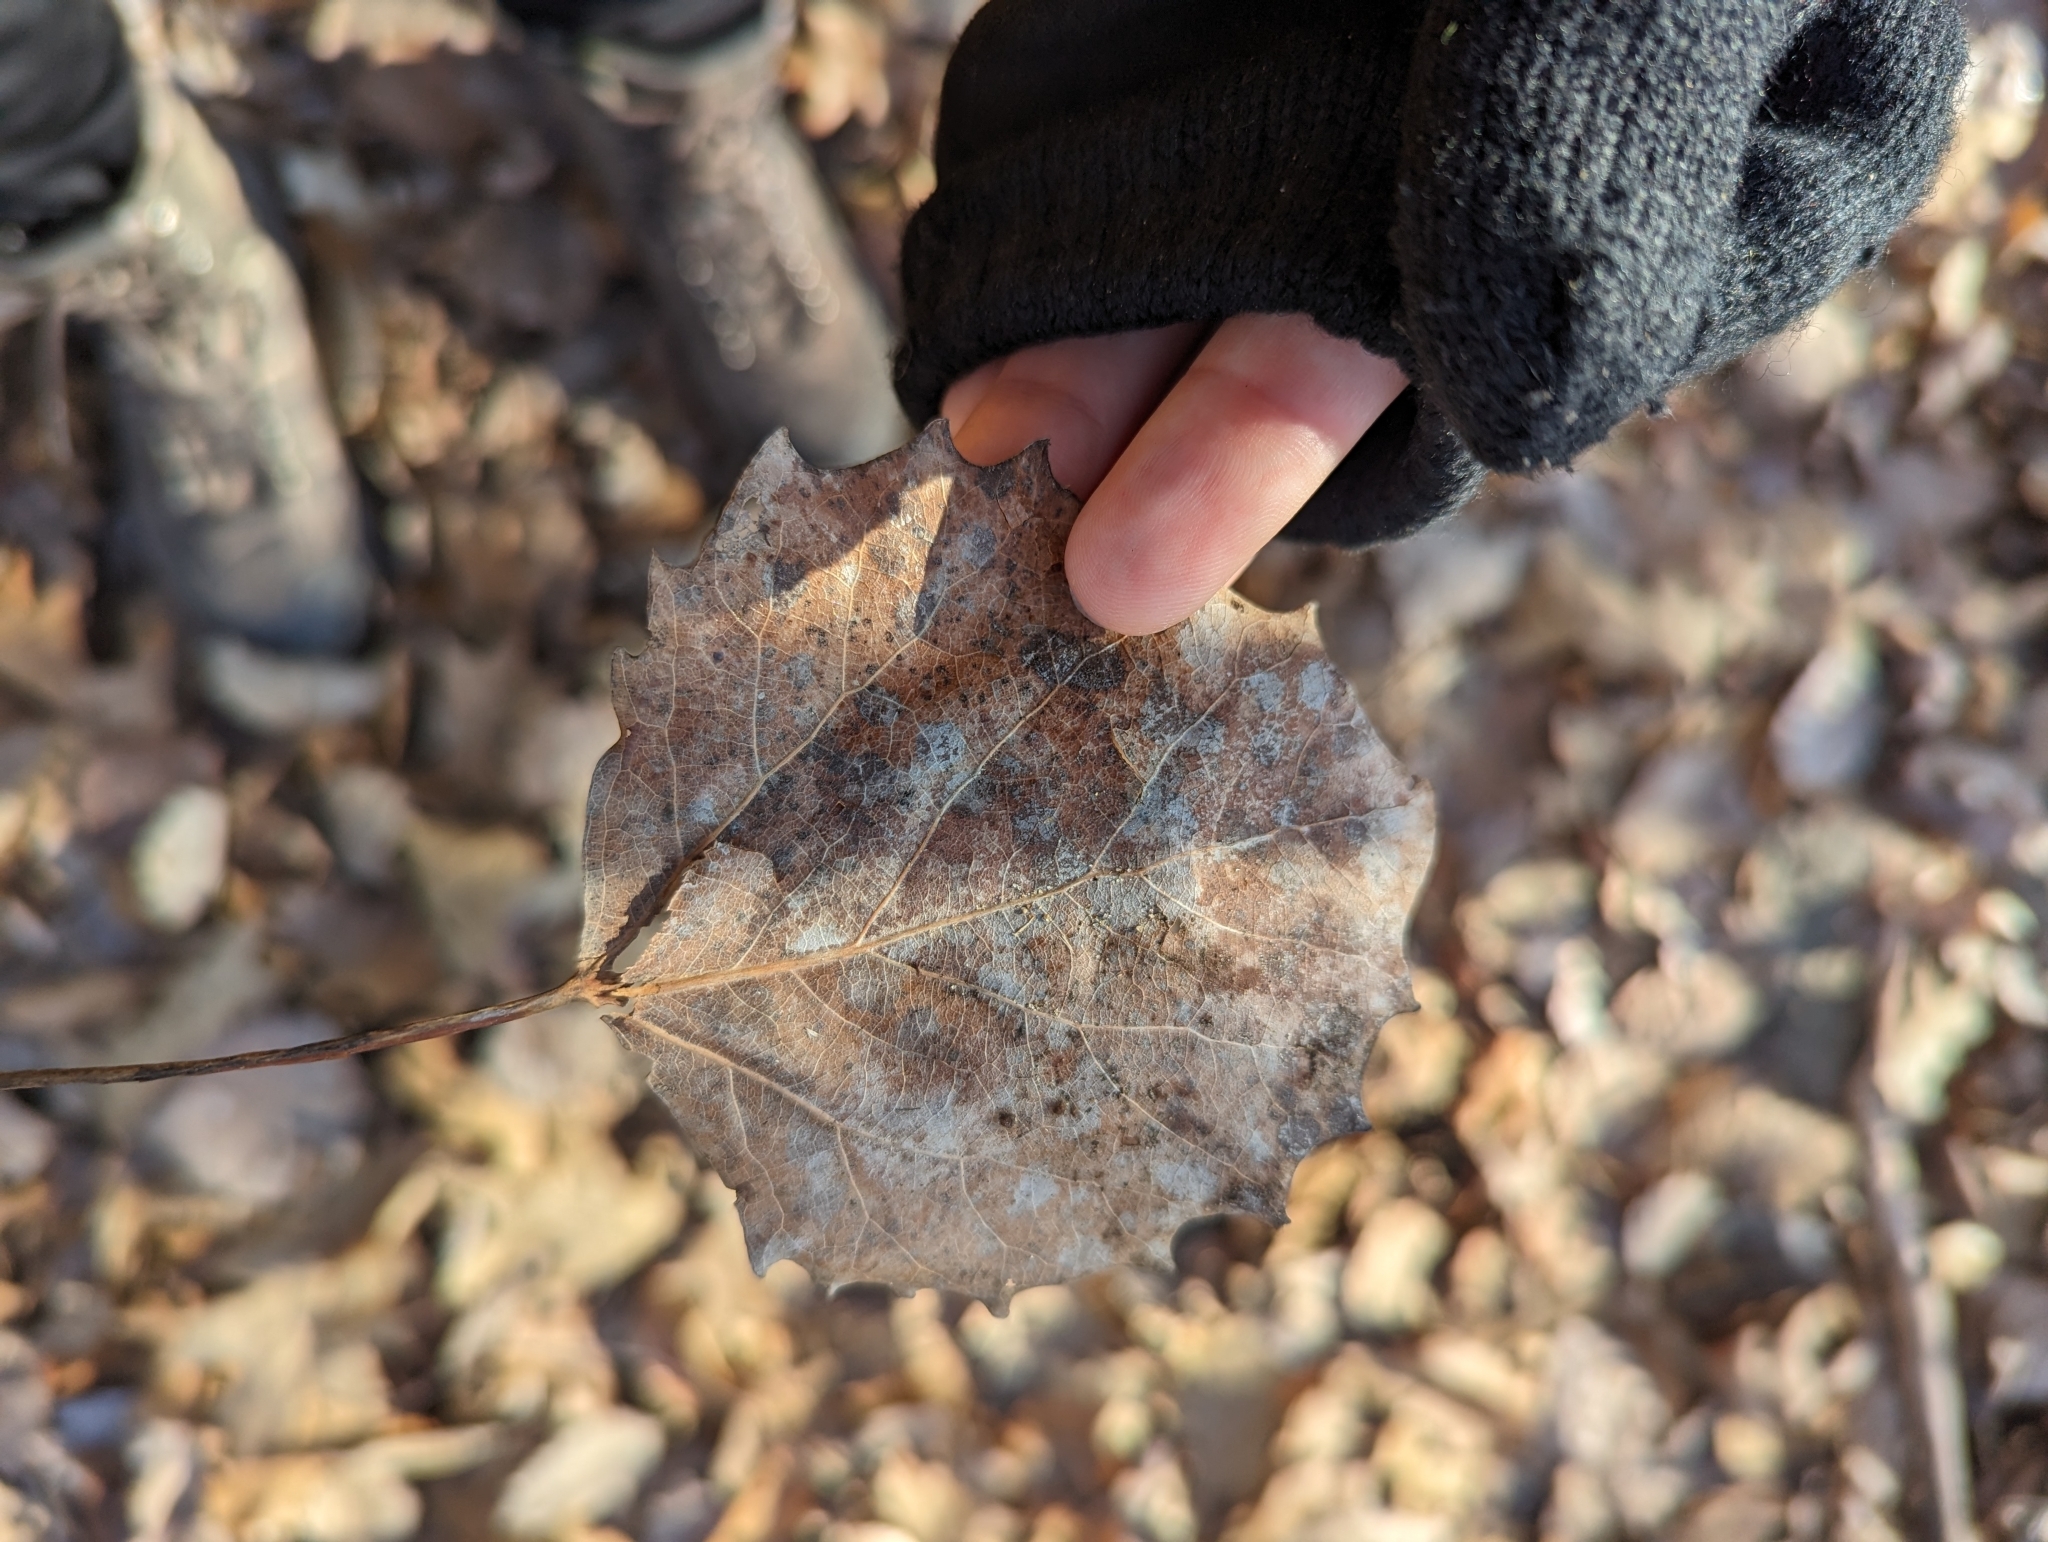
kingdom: Plantae
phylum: Tracheophyta
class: Magnoliopsida
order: Malpighiales
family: Salicaceae
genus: Populus
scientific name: Populus grandidentata
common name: Bigtooth aspen
